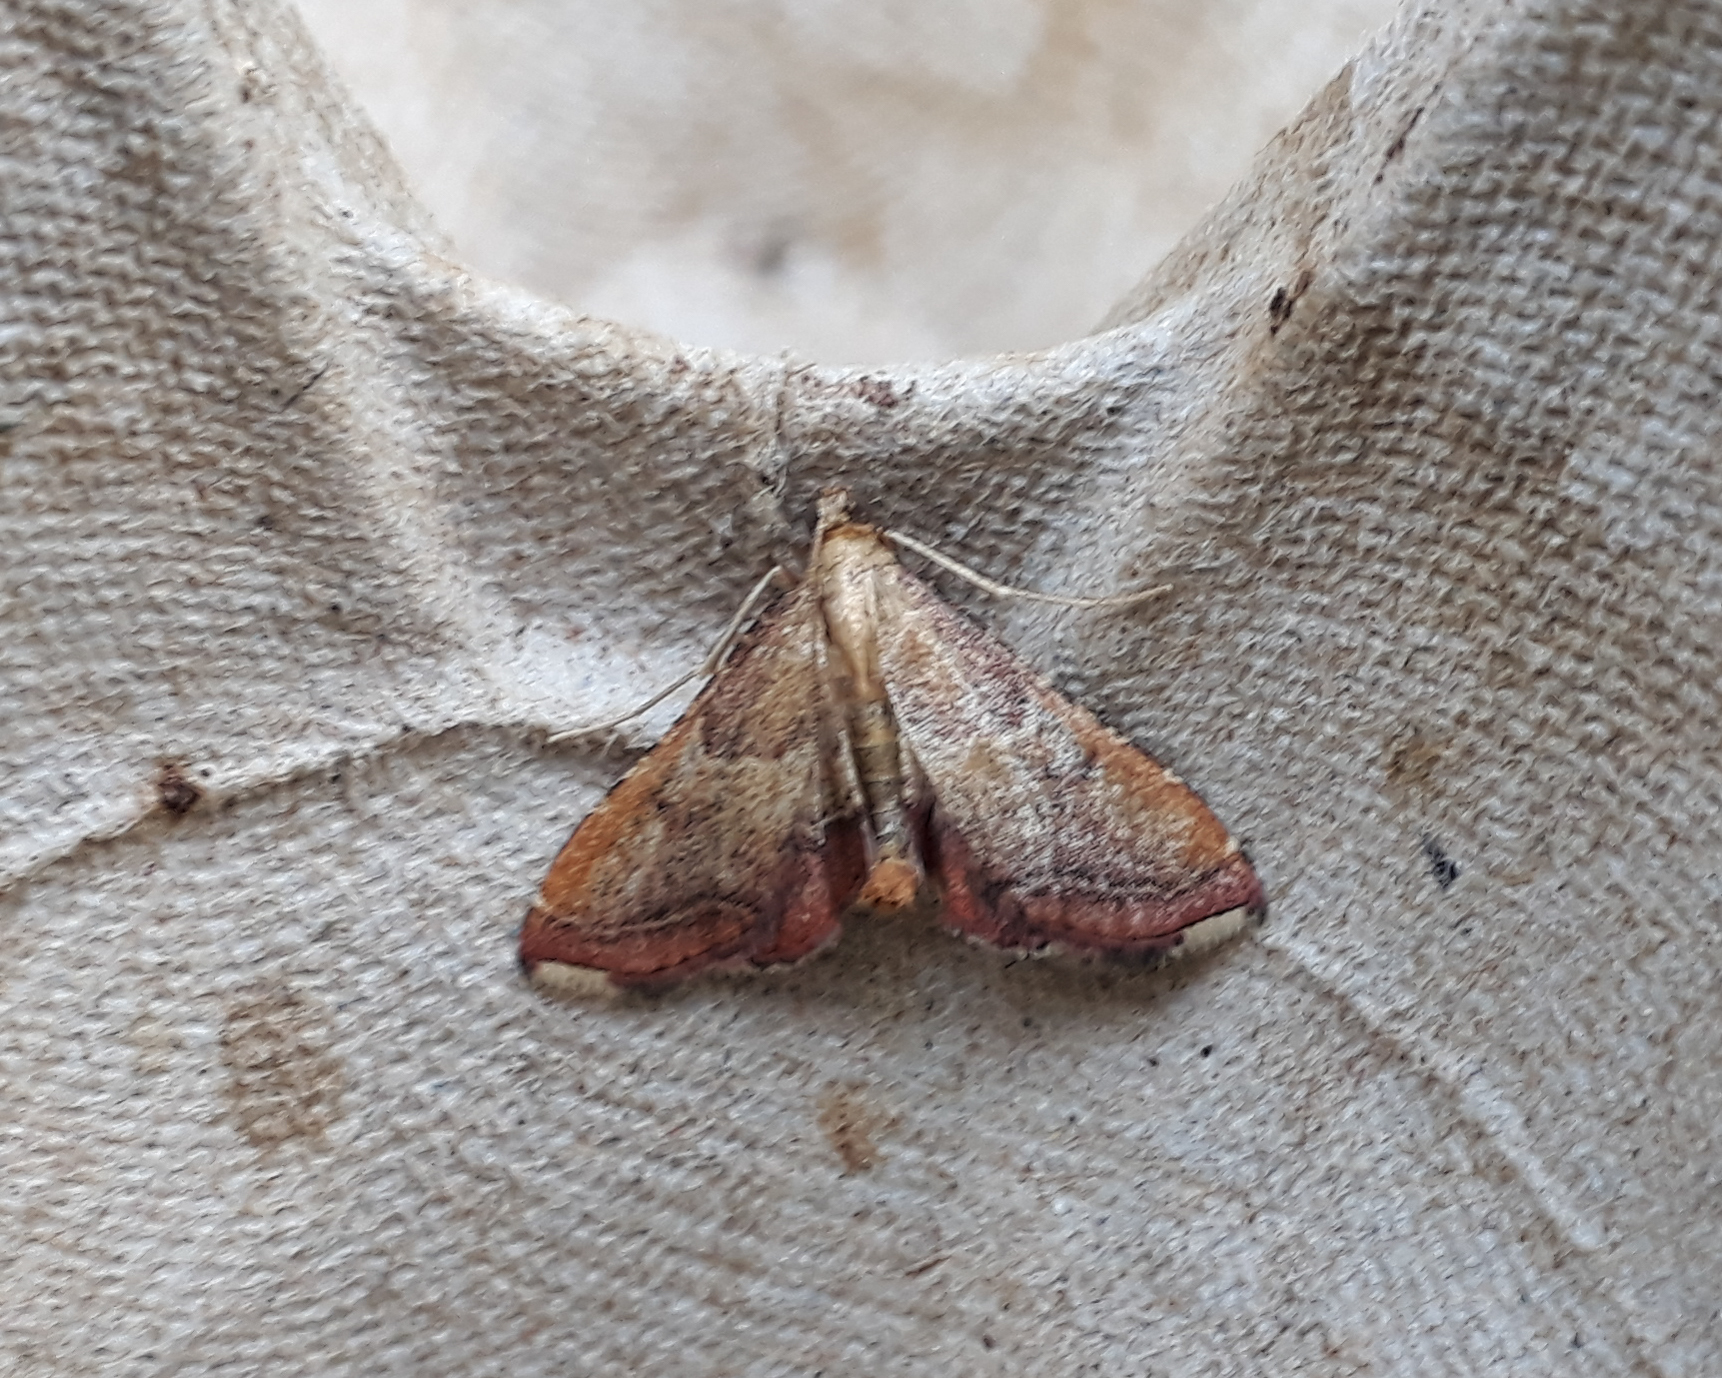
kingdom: Animalia
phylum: Arthropoda
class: Insecta
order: Lepidoptera
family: Pyralidae
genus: Endotricha
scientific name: Endotricha flammealis
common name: Rosy tabby
